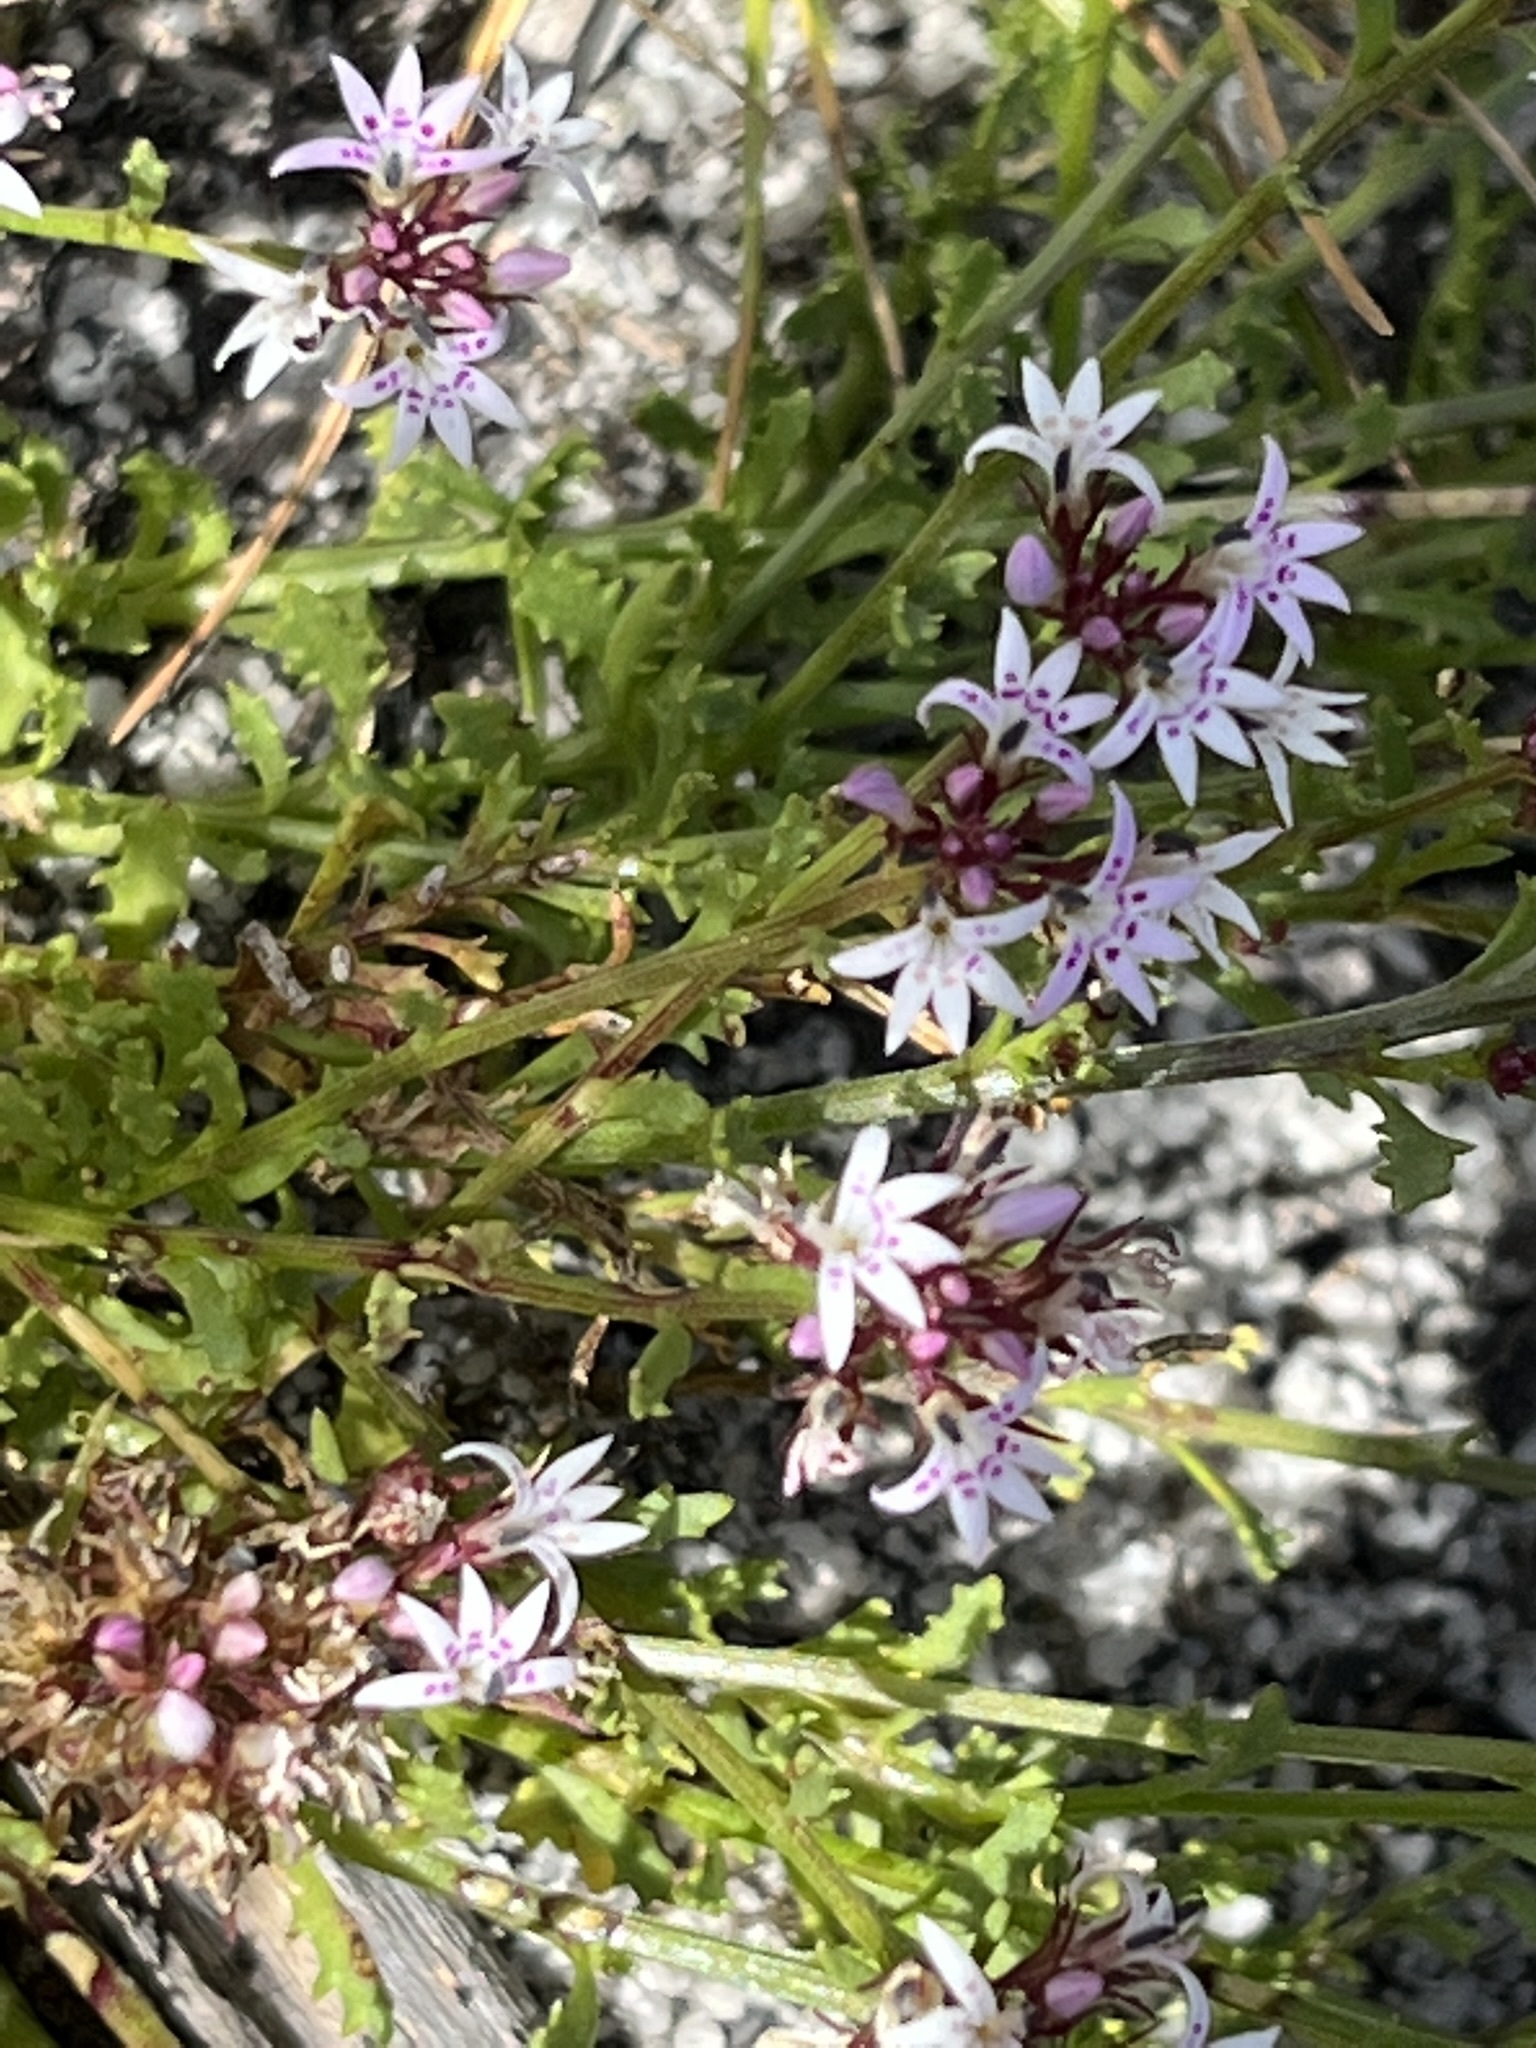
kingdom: Plantae
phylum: Tracheophyta
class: Magnoliopsida
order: Asterales
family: Campanulaceae
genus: Lobelia
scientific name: Lobelia jasionoides
